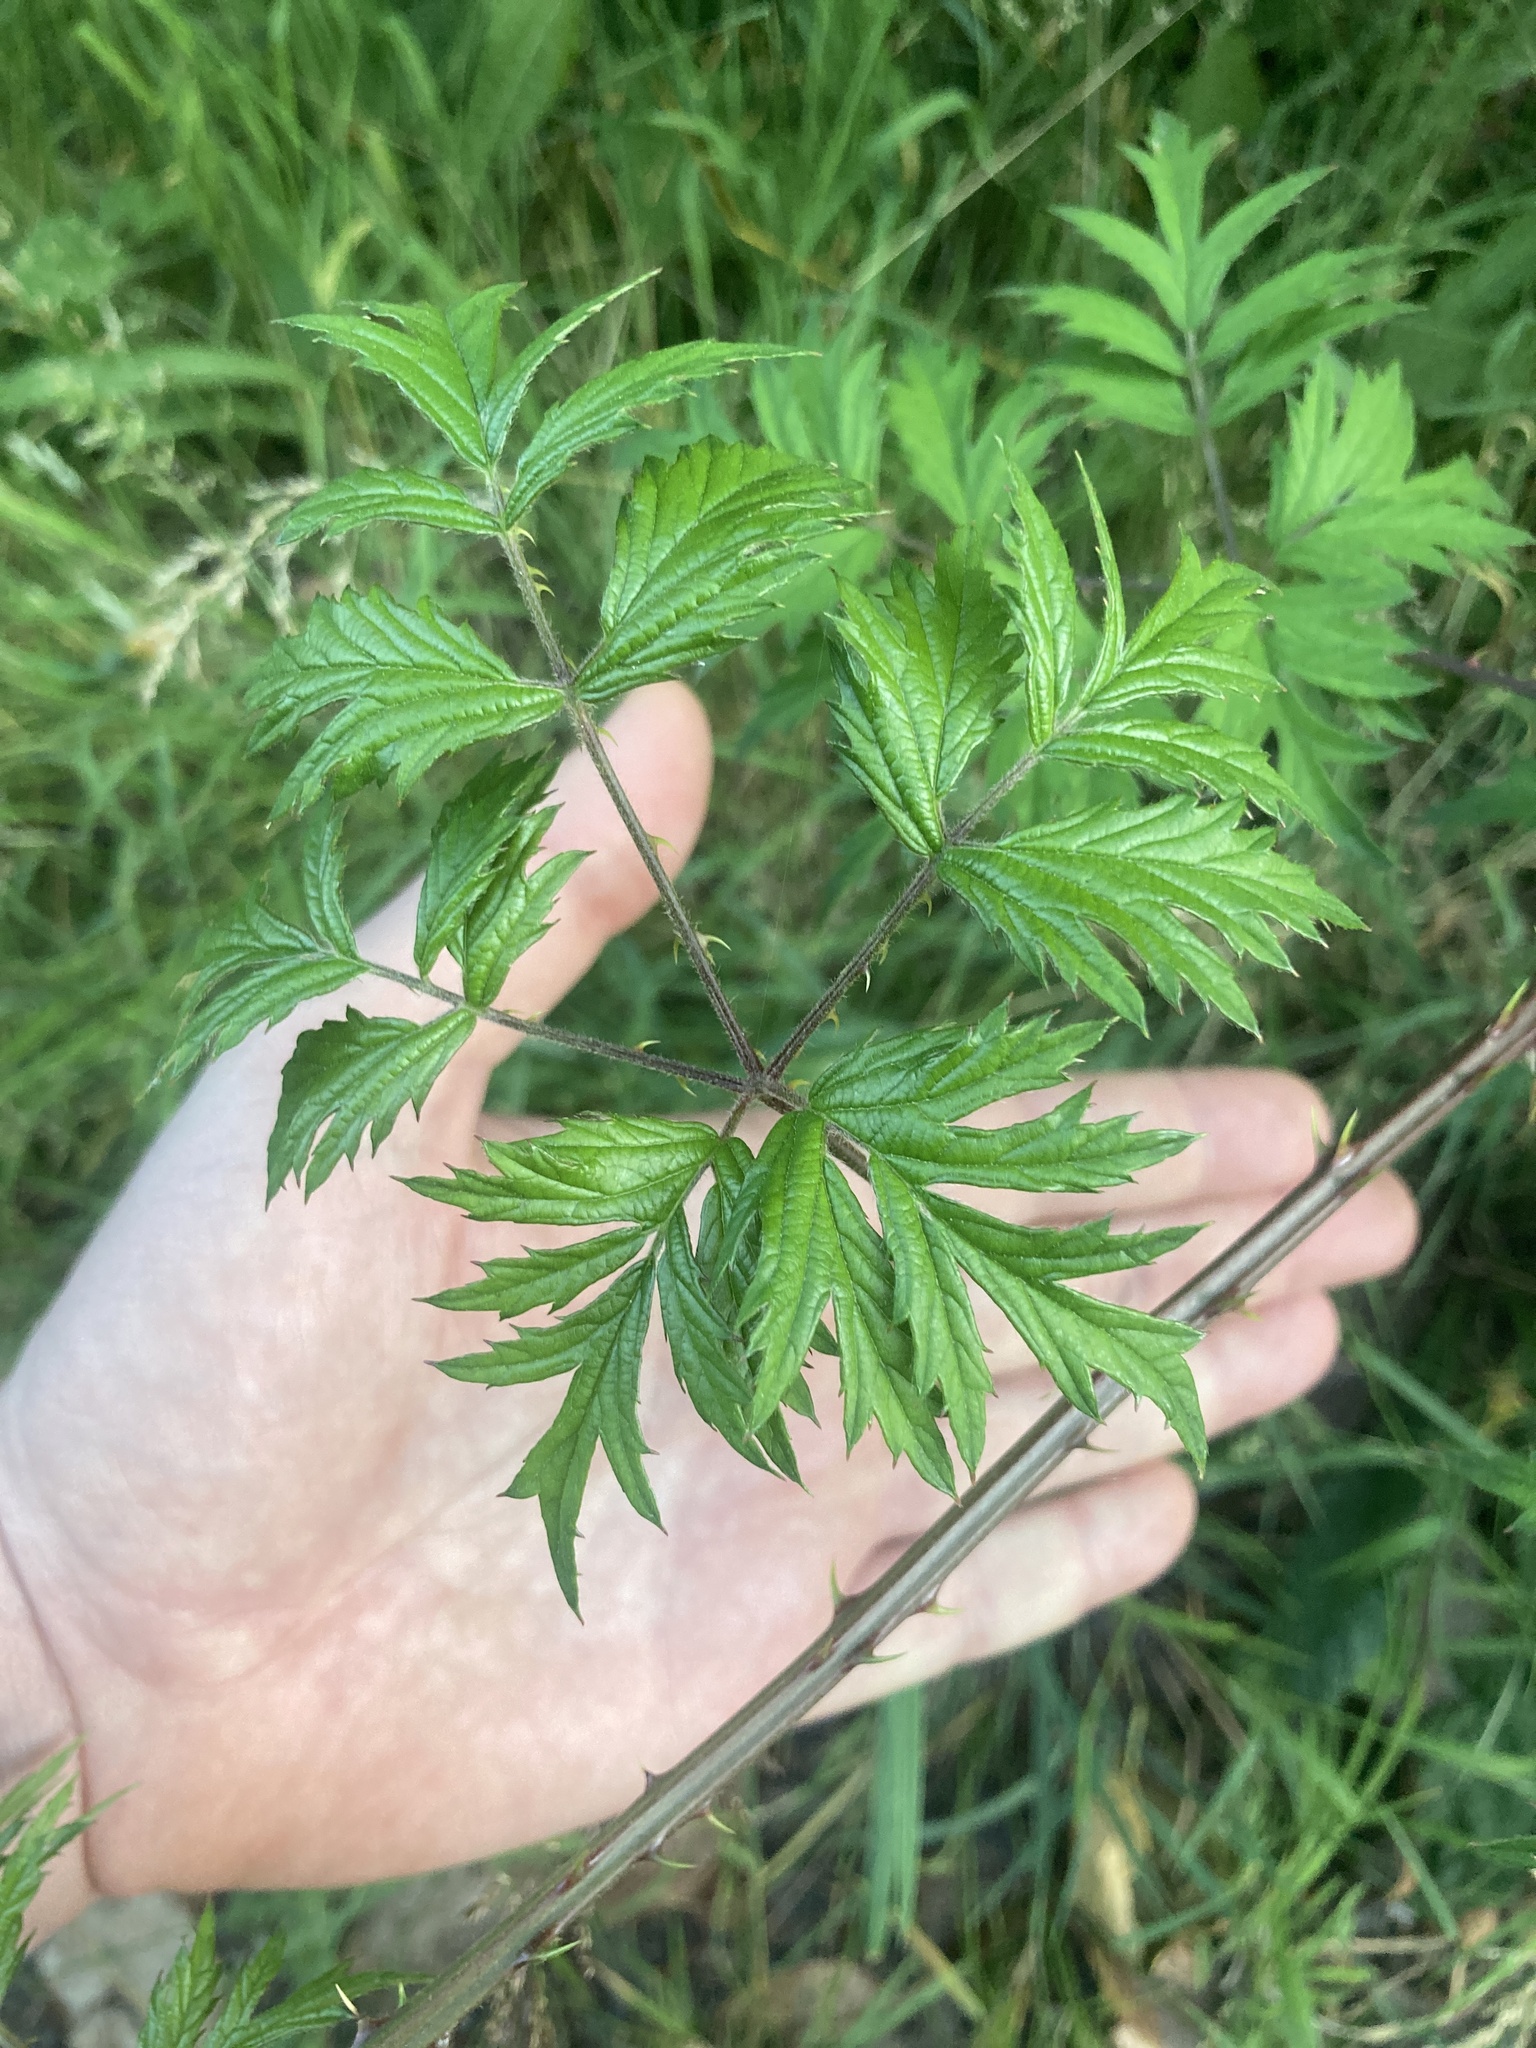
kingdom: Plantae
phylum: Tracheophyta
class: Magnoliopsida
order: Rosales
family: Rosaceae
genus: Rubus
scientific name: Rubus laciniatus
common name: Evergreen blackberry
